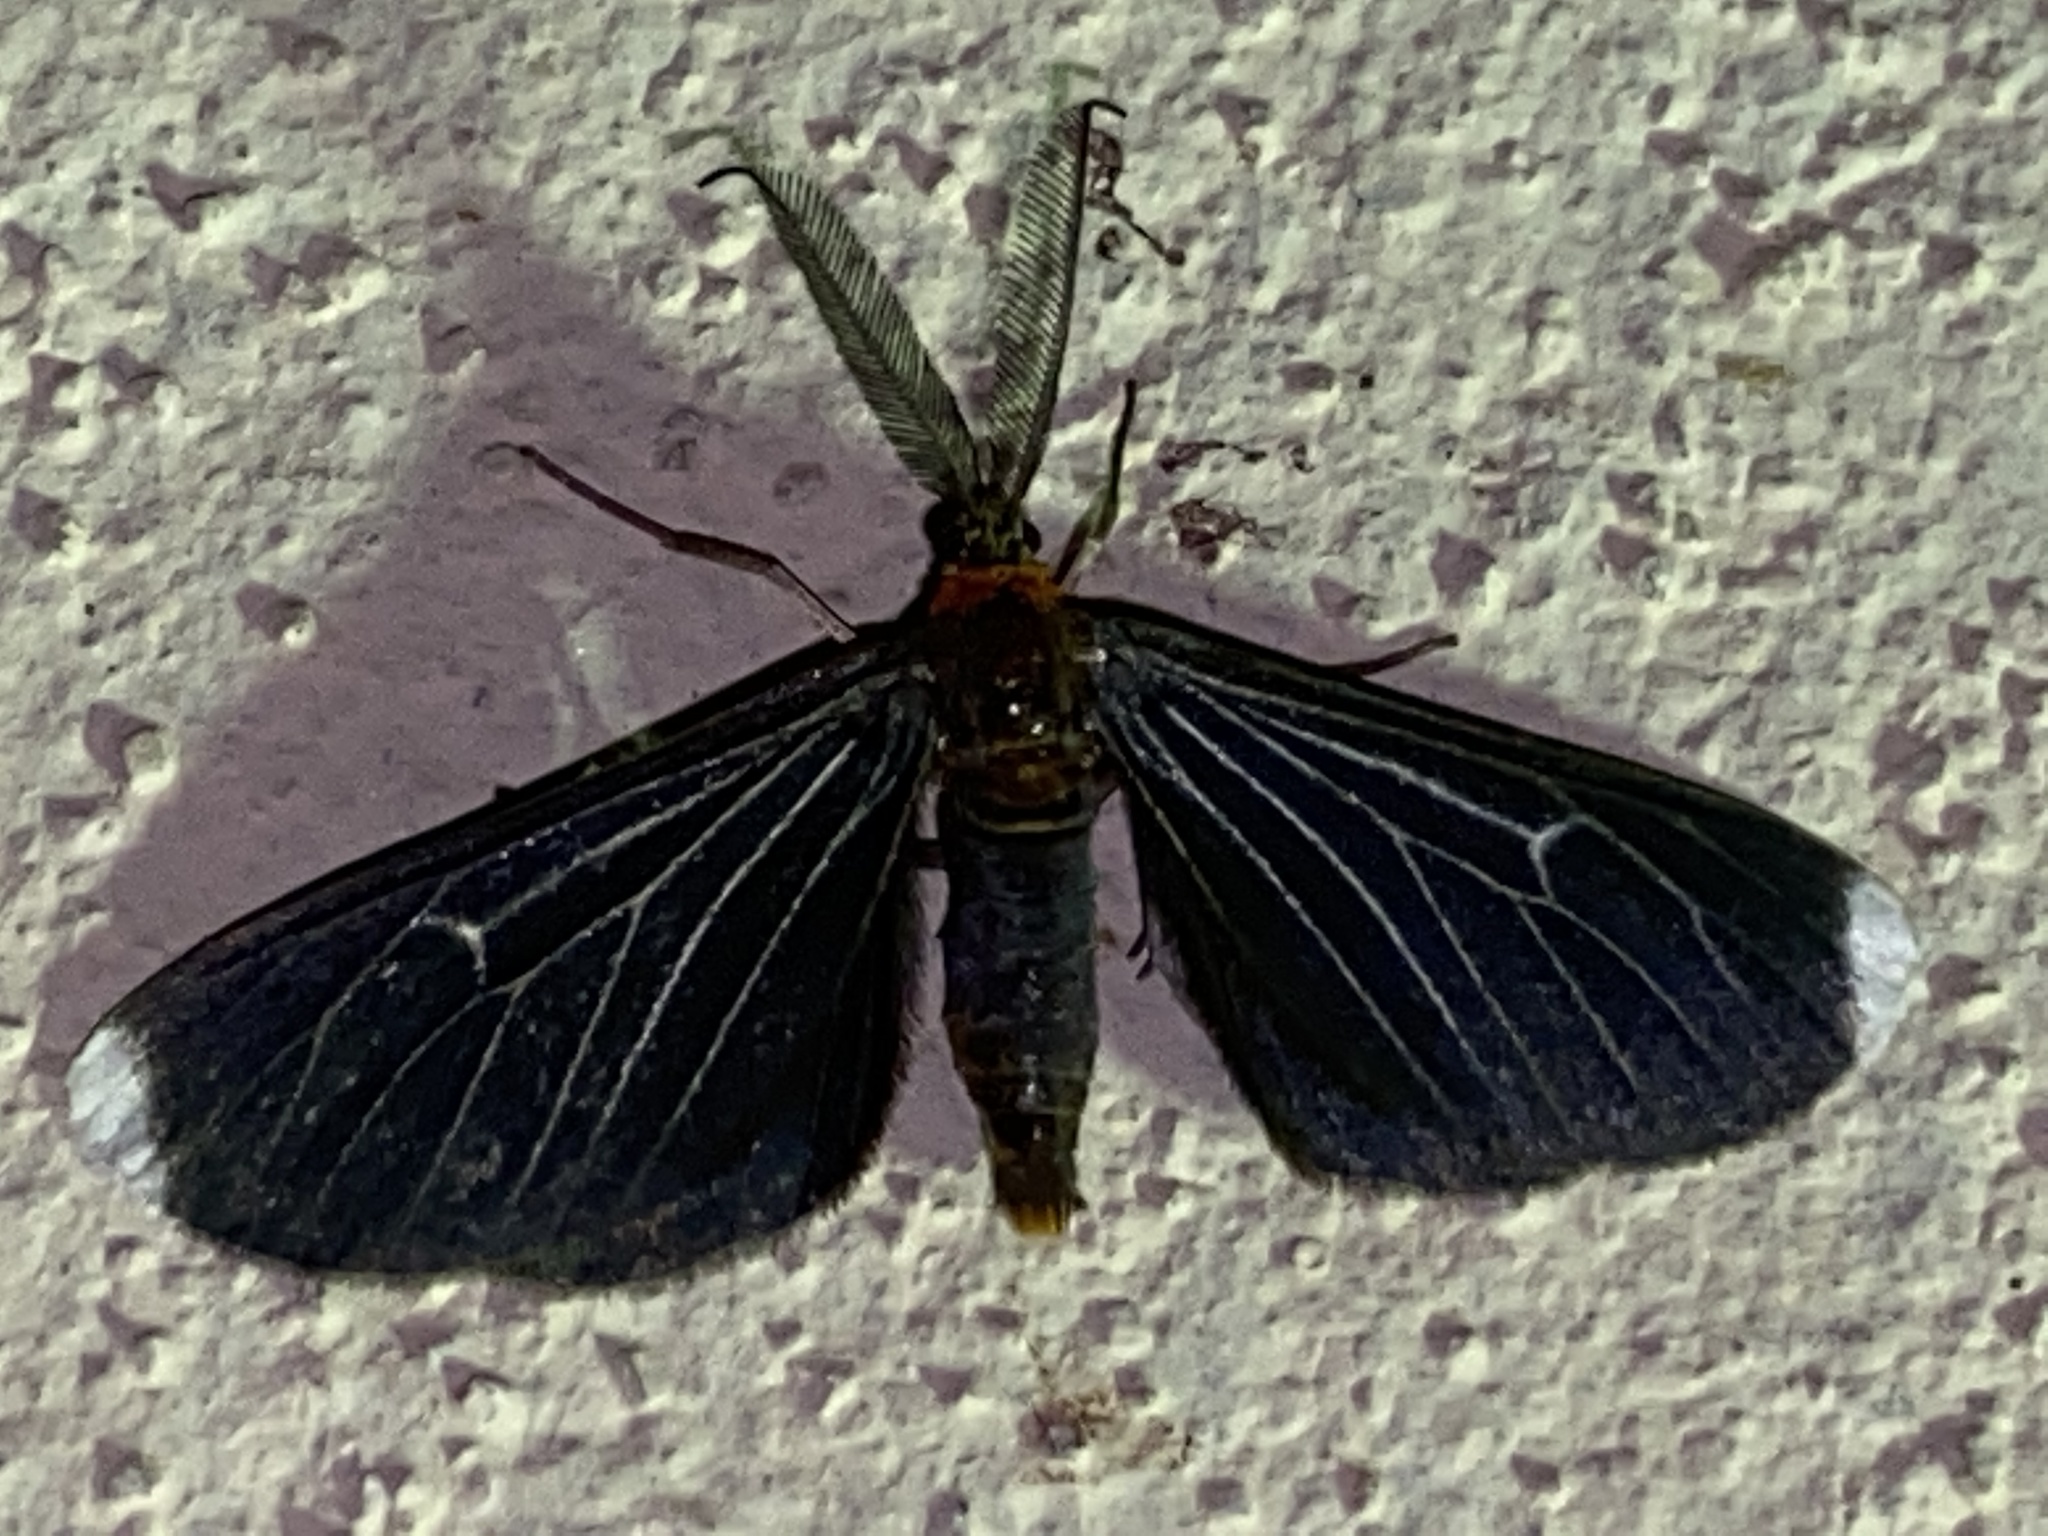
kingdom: Animalia
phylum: Arthropoda
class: Insecta
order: Lepidoptera
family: Geometridae
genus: Melanchroia
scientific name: Melanchroia chephise
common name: White-tipped black
